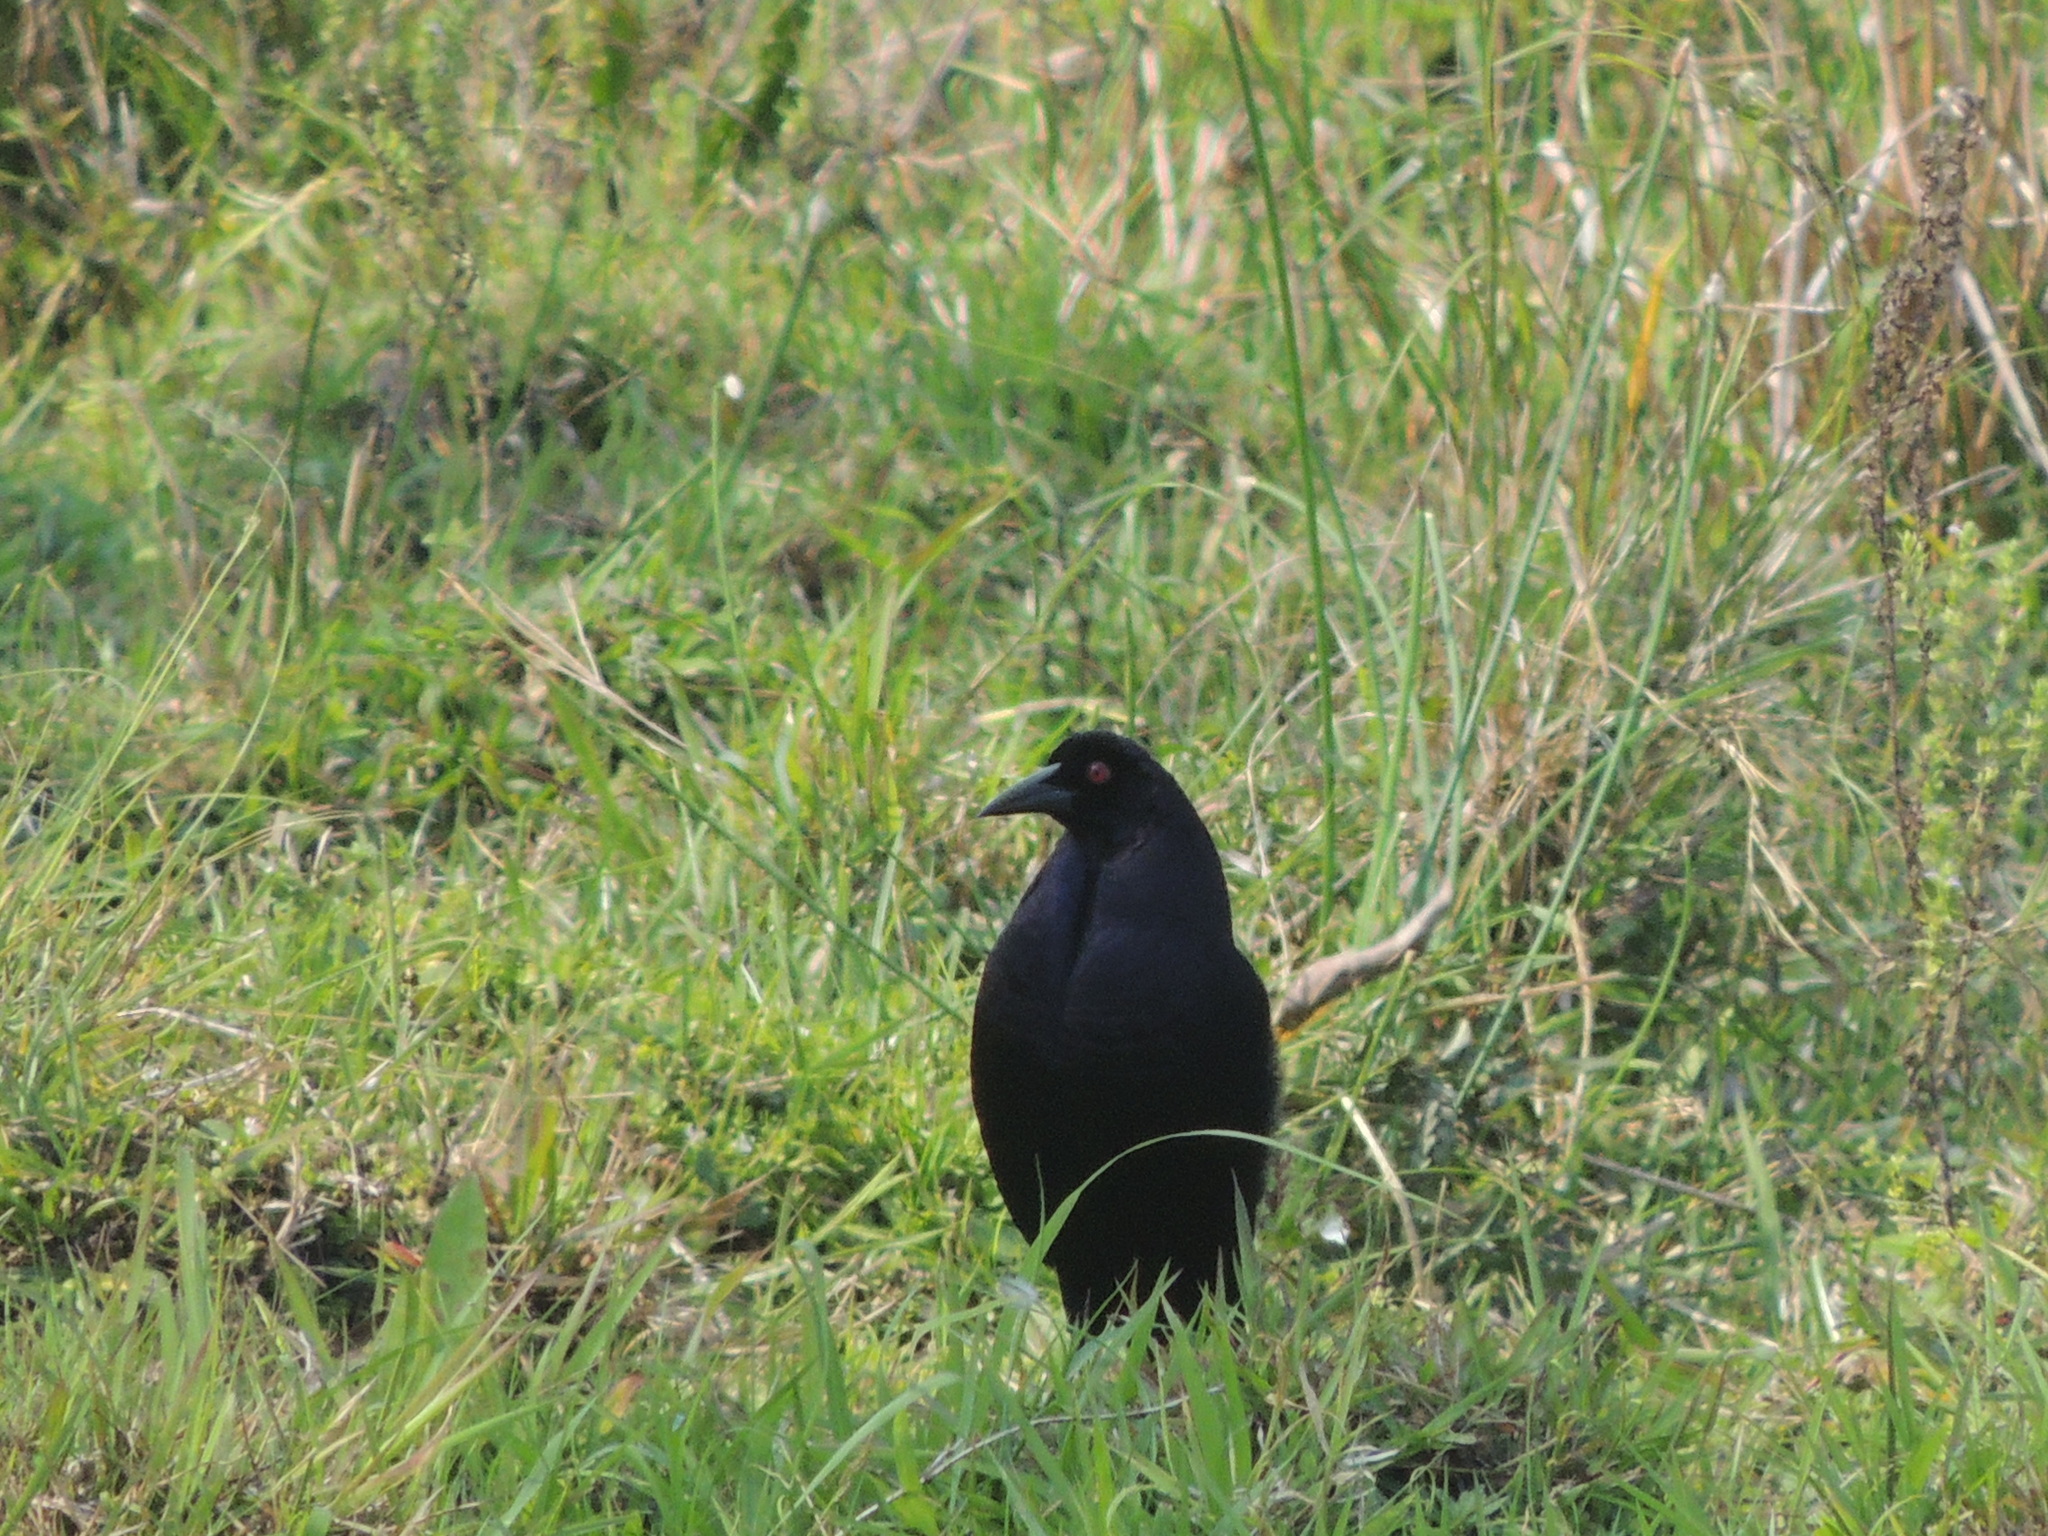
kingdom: Animalia
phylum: Chordata
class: Aves
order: Passeriformes
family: Icteridae
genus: Molothrus
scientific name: Molothrus oryzivorus
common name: Giant cowbird
